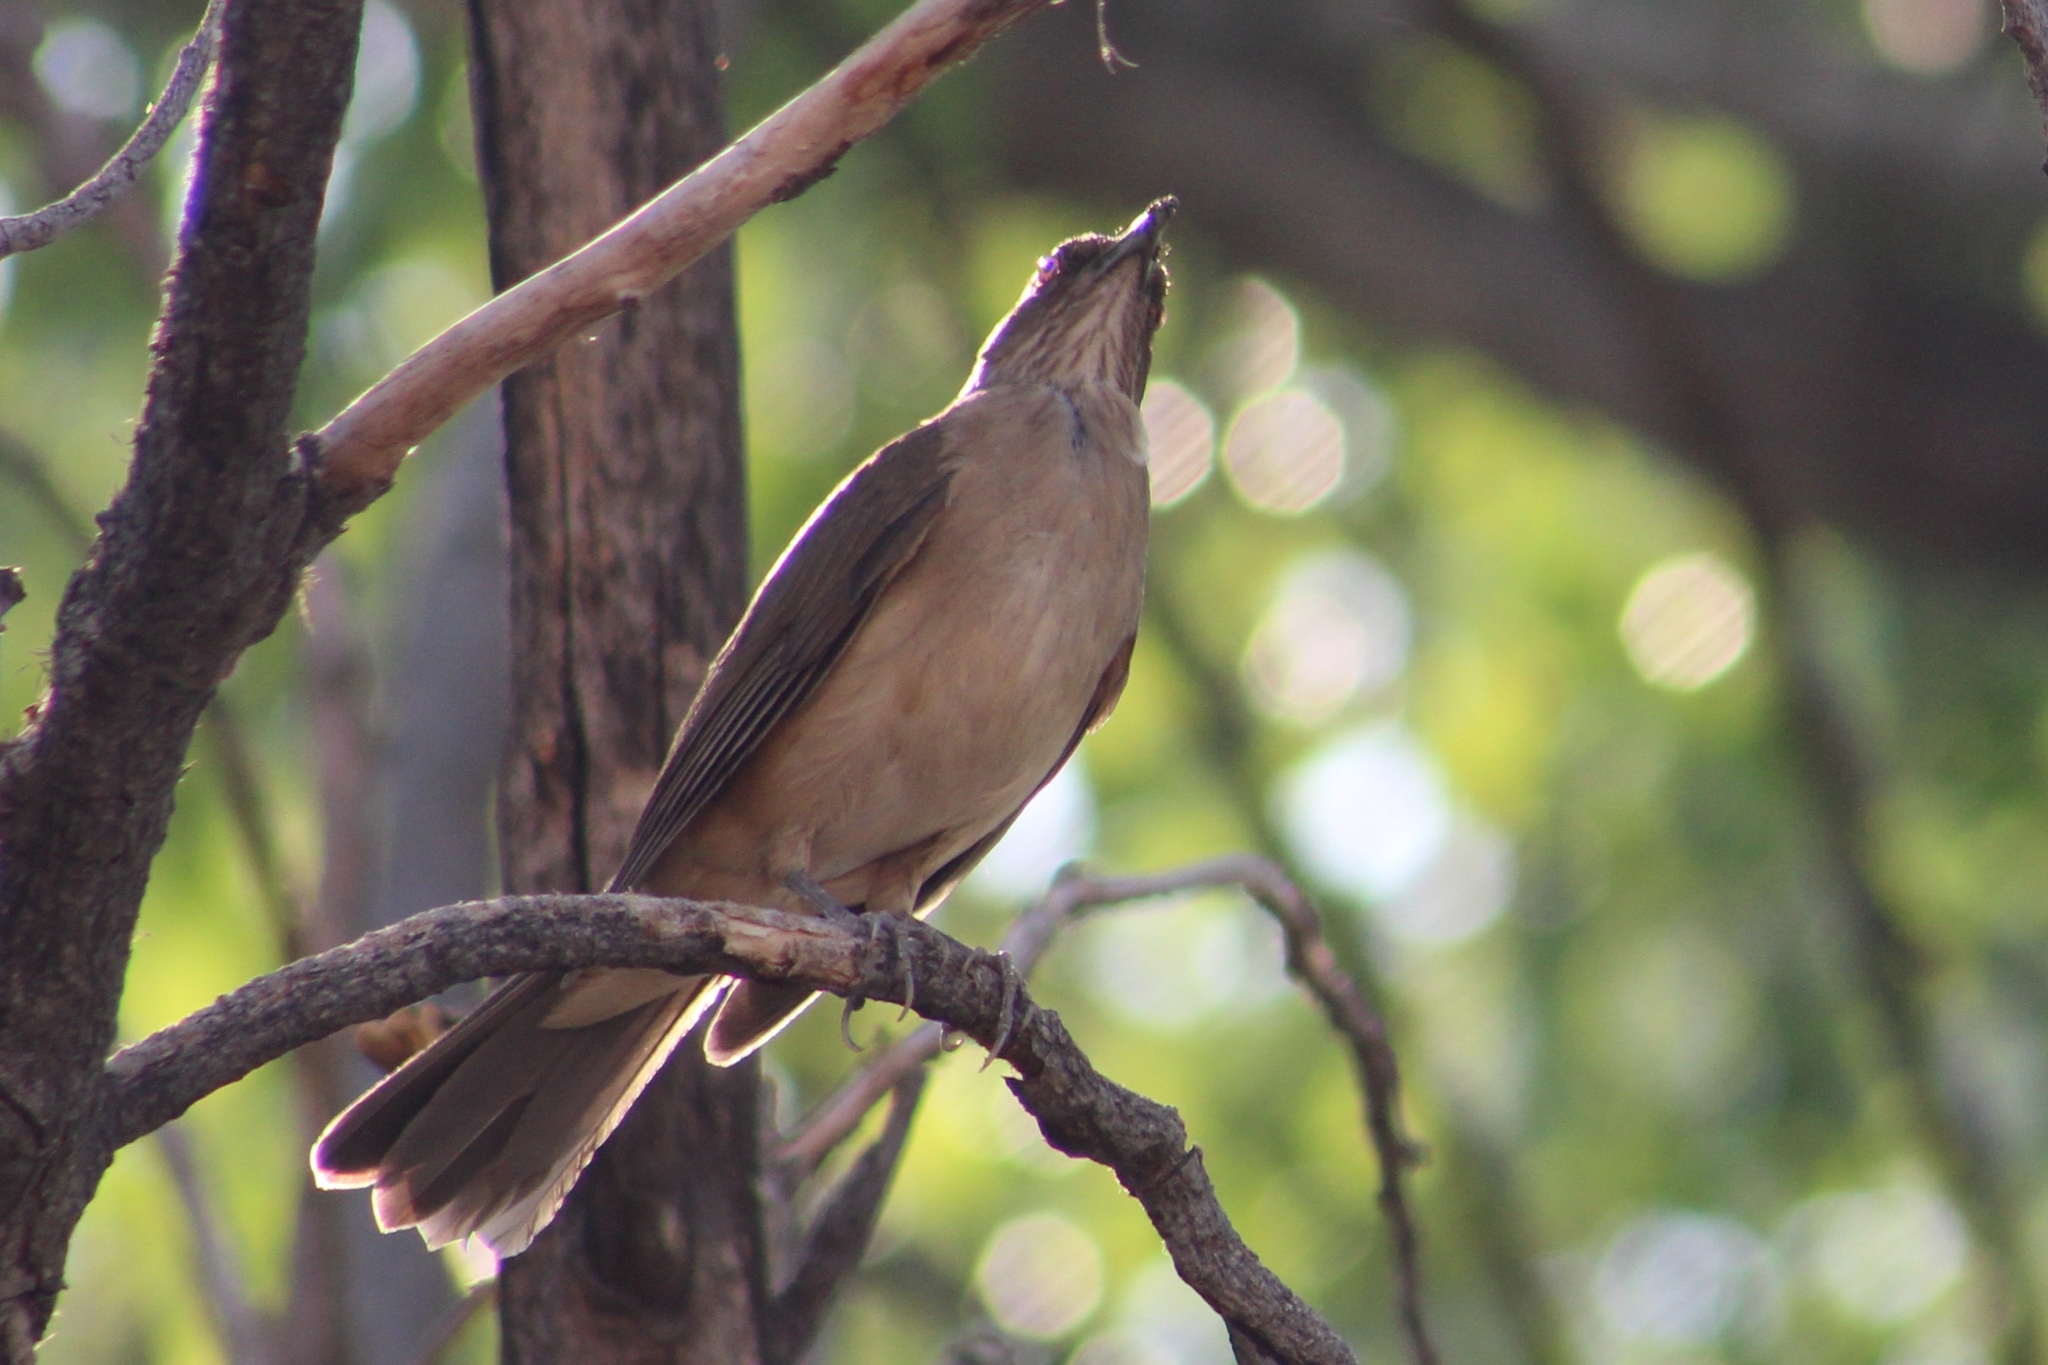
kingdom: Animalia
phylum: Chordata
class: Aves
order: Passeriformes
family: Turdidae
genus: Turdus
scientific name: Turdus grayi
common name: Clay-colored thrush
